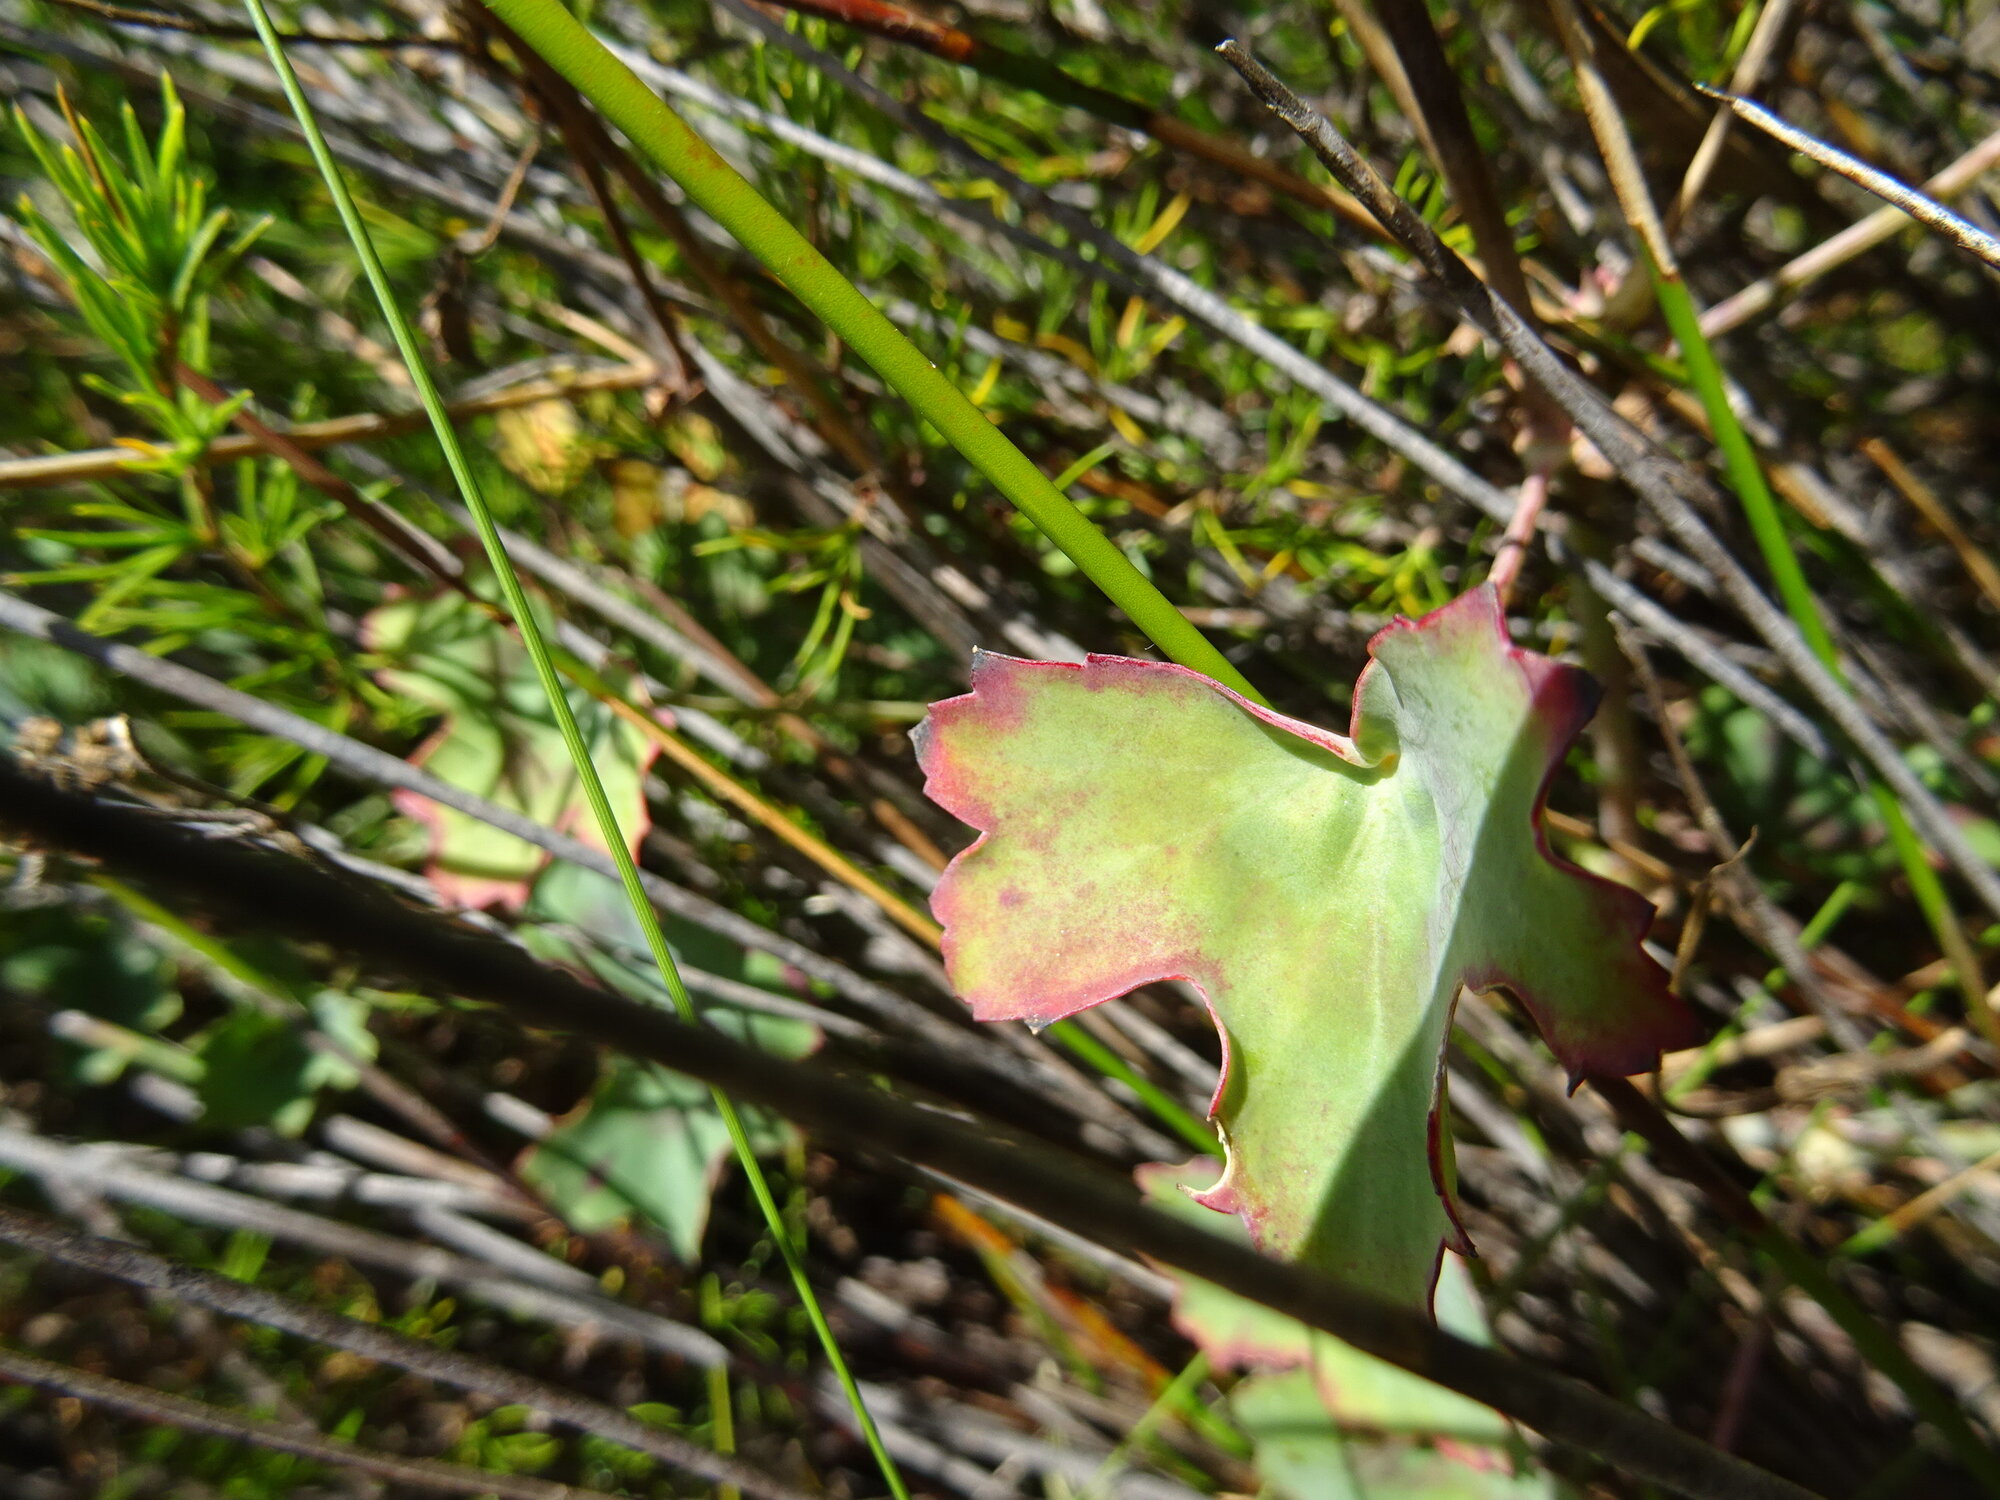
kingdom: Plantae
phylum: Tracheophyta
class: Magnoliopsida
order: Geraniales
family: Geraniaceae
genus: Pelargonium
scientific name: Pelargonium tabulare
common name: Table mountain pelargonium
